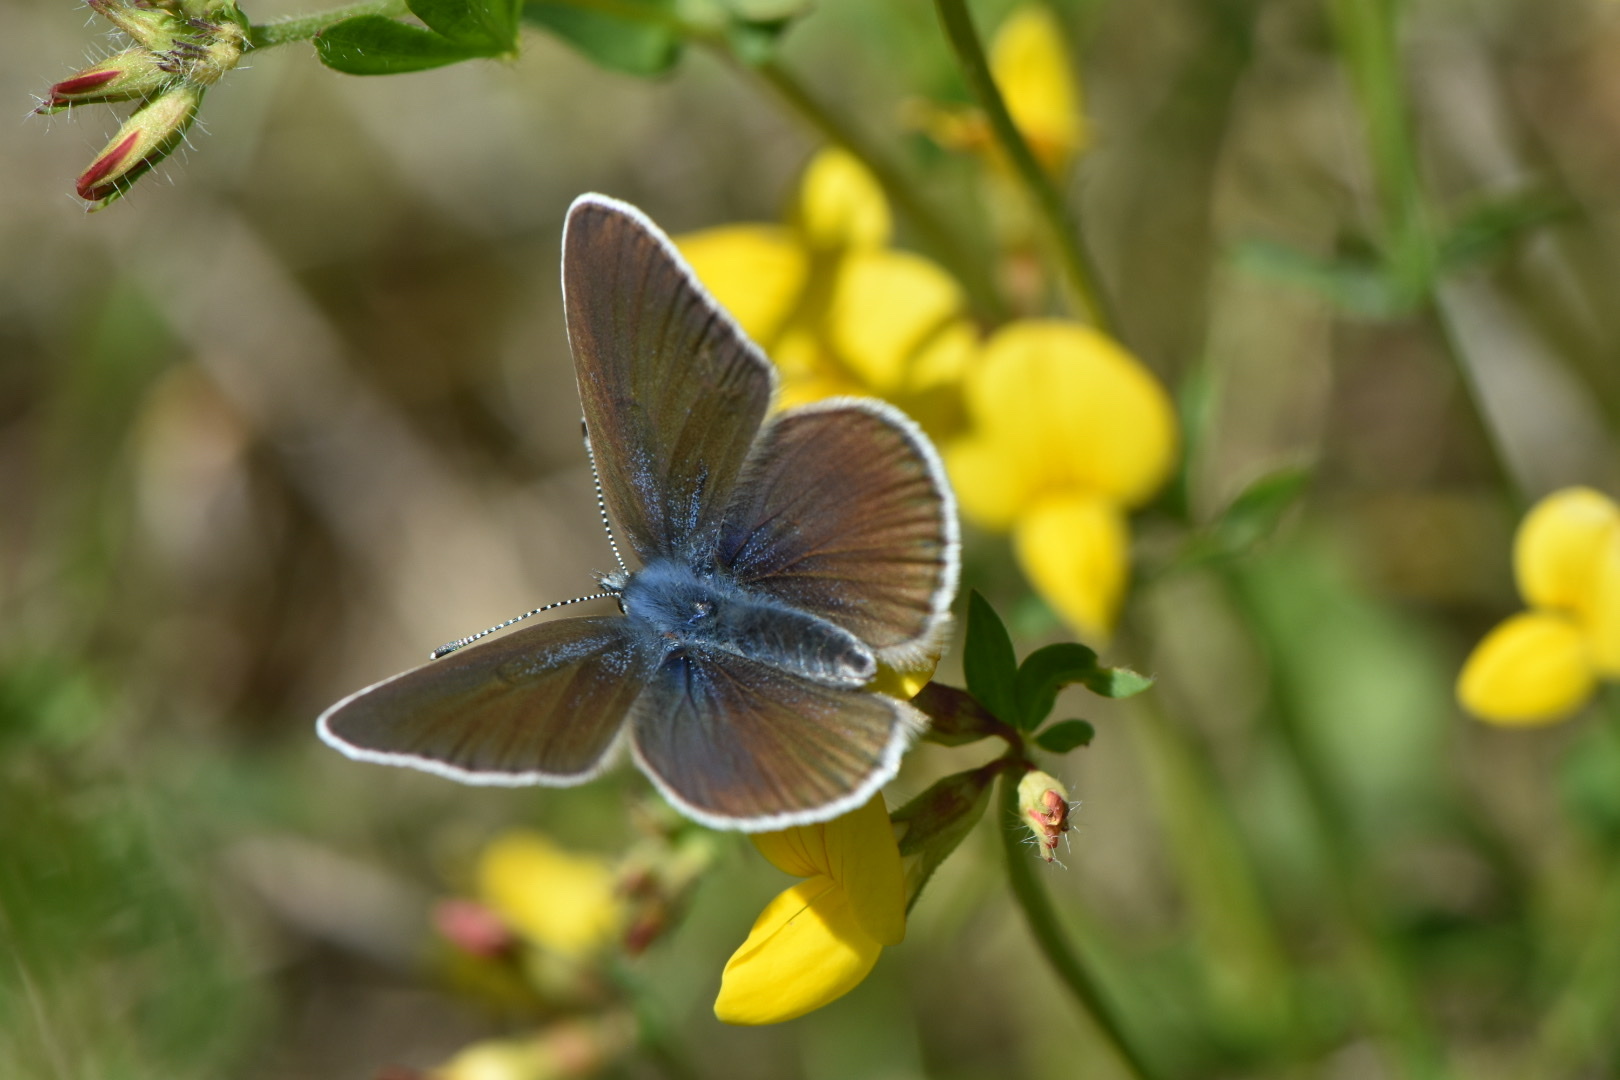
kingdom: Animalia
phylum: Arthropoda
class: Insecta
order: Lepidoptera
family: Lycaenidae
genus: Cyaniris
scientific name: Cyaniris semiargus
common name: Mazarine blue
